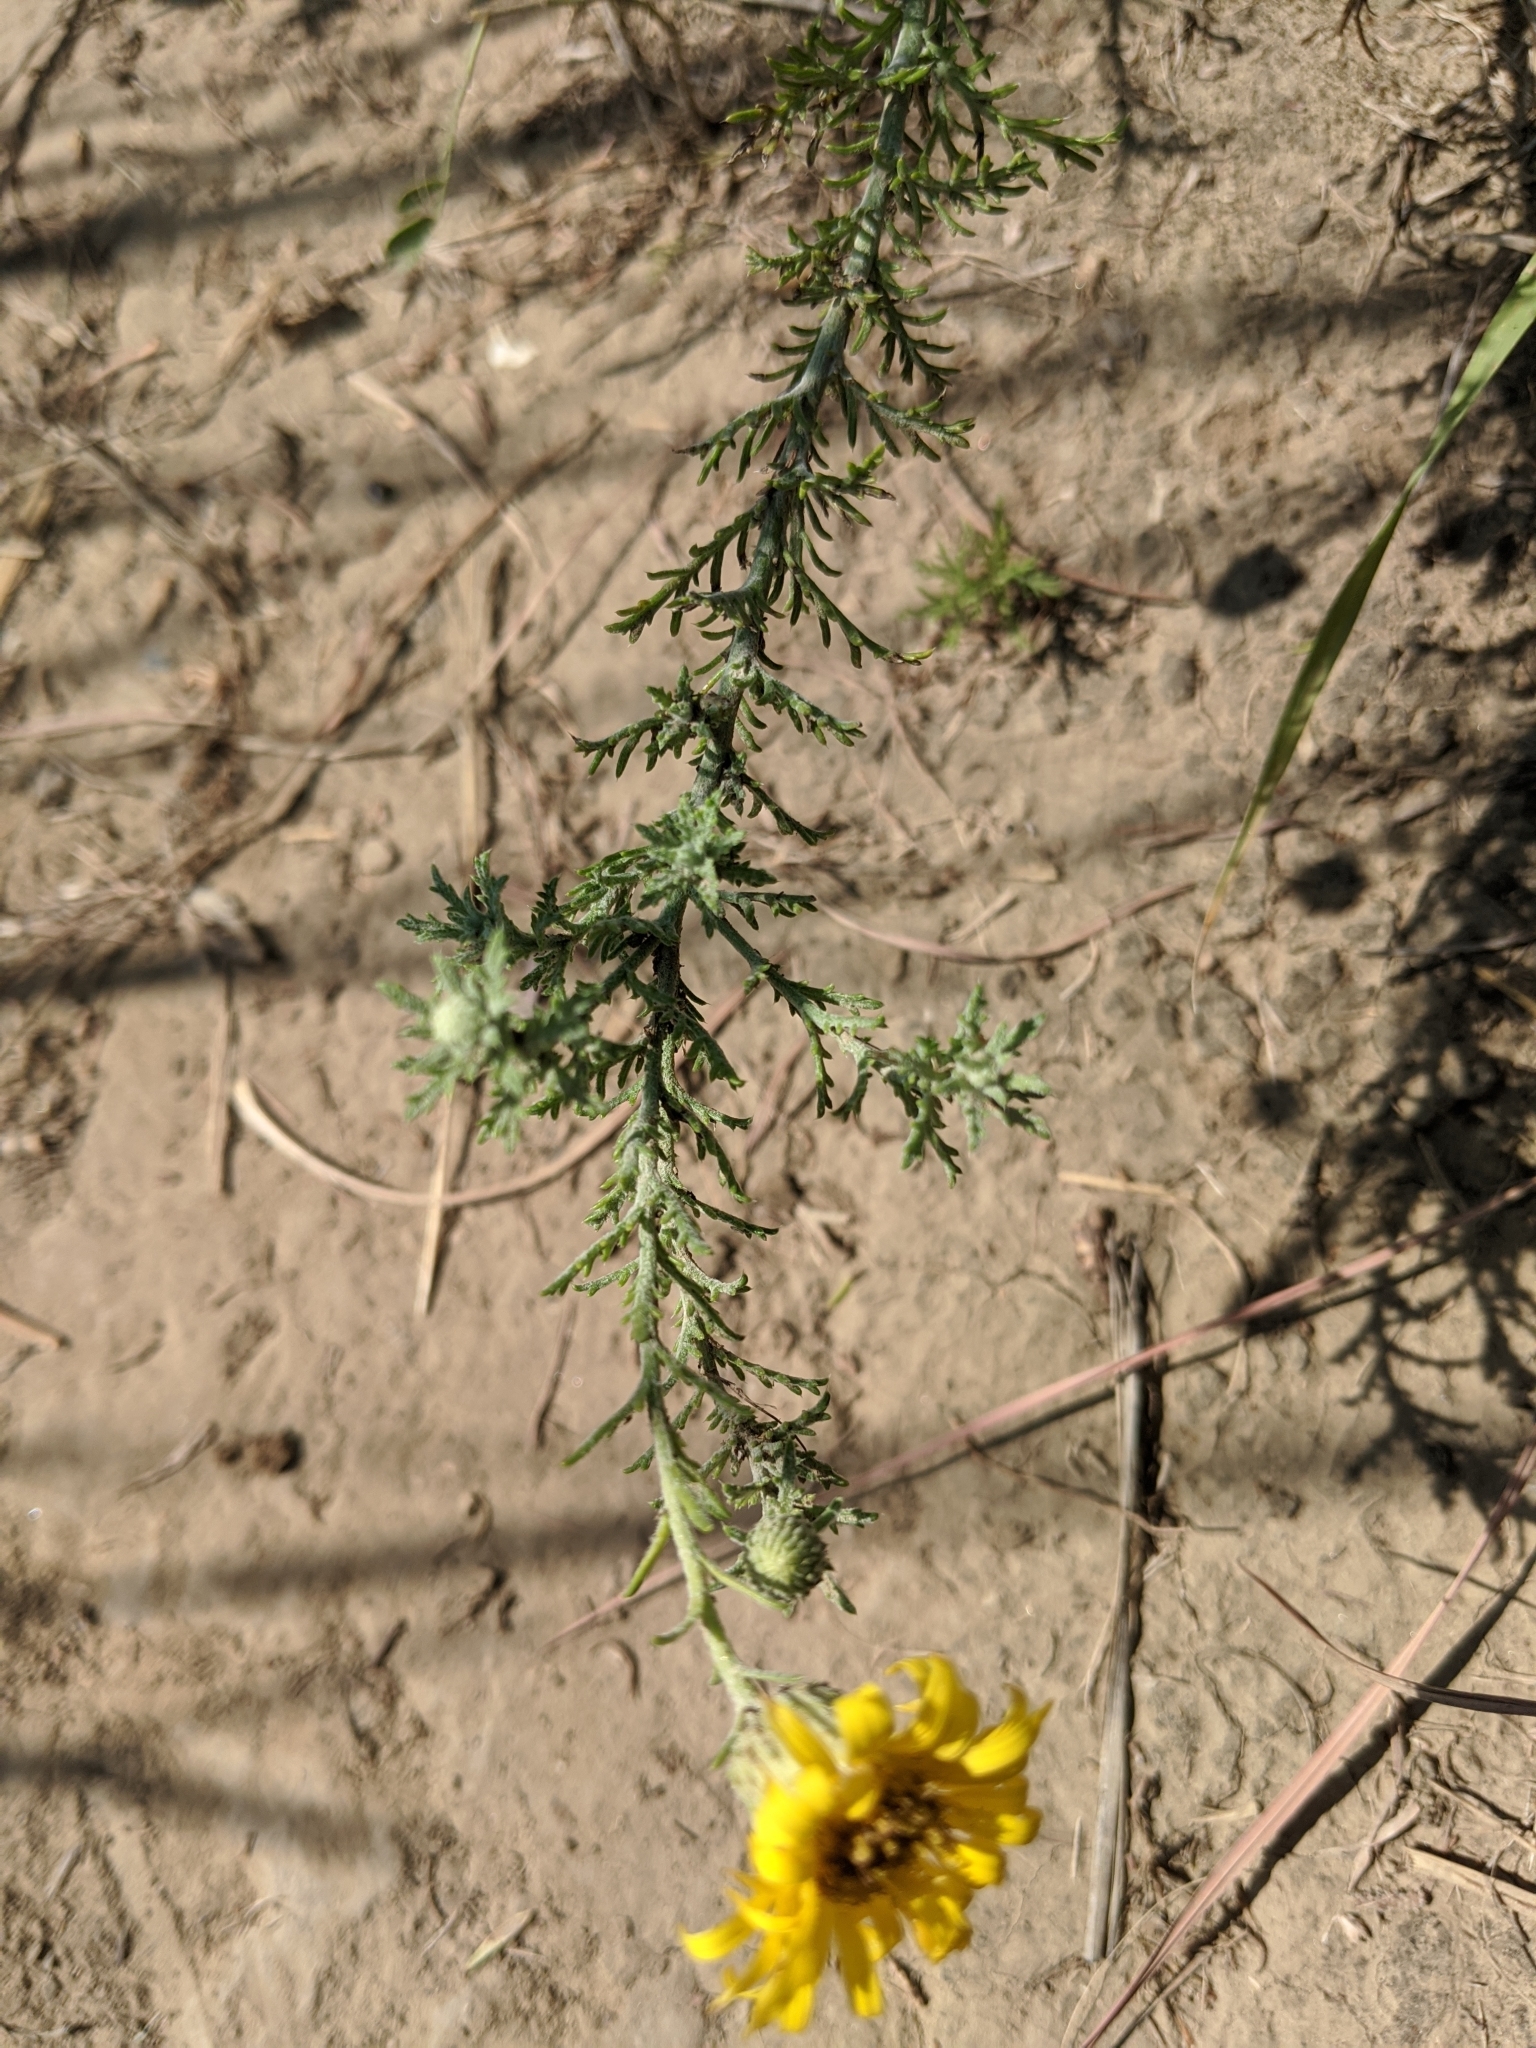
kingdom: Plantae
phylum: Tracheophyta
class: Magnoliopsida
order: Asterales
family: Asteraceae
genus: Xanthisma
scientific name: Xanthisma spinulosum
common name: Spiny goldenweed
